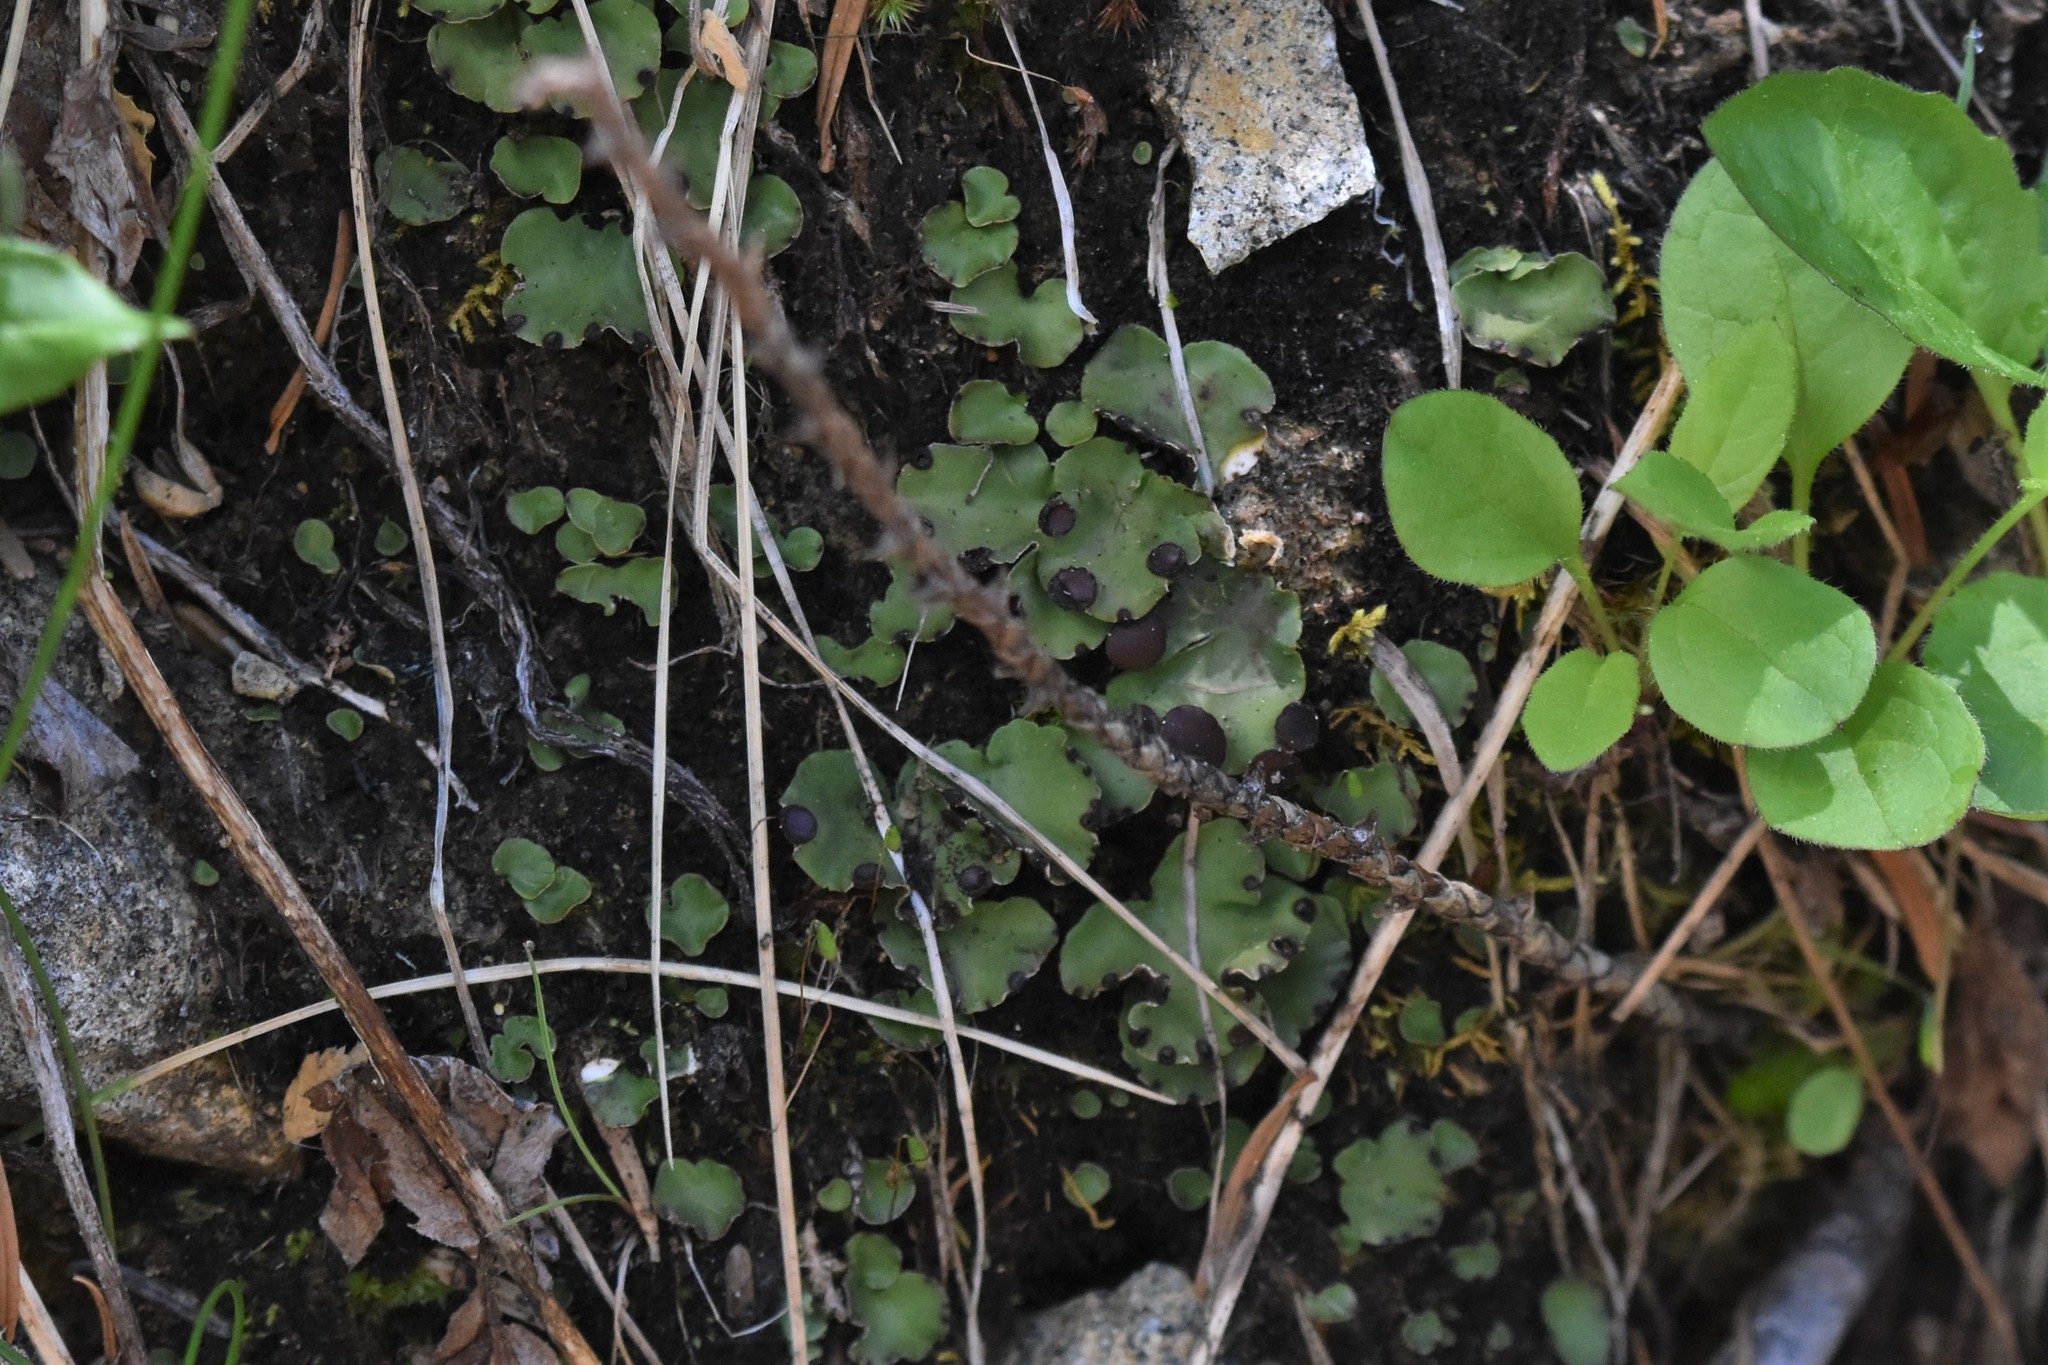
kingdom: Fungi
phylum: Ascomycota
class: Lecanoromycetes
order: Peltigerales
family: Peltigeraceae
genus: Peltigera
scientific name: Peltigera venosa
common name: Pixie gowns lichen
